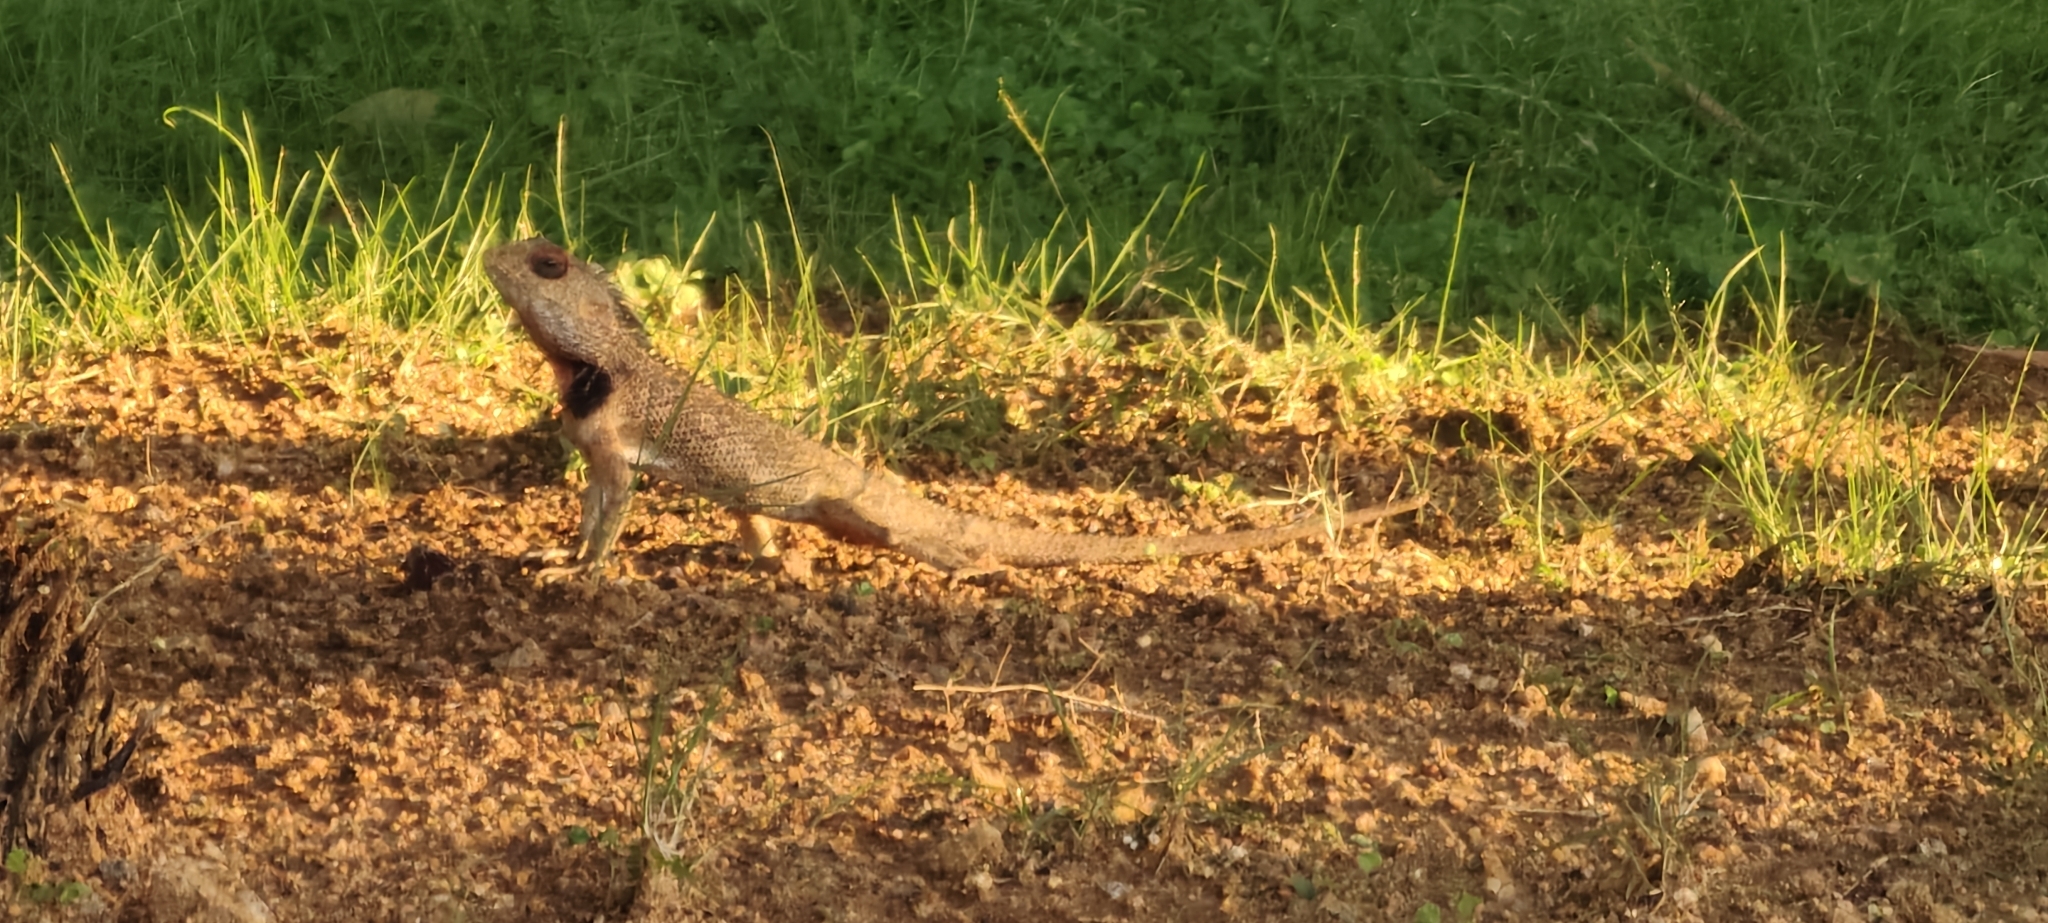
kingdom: Animalia
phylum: Chordata
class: Squamata
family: Agamidae
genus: Calotes
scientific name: Calotes versicolor
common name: Oriental garden lizard
